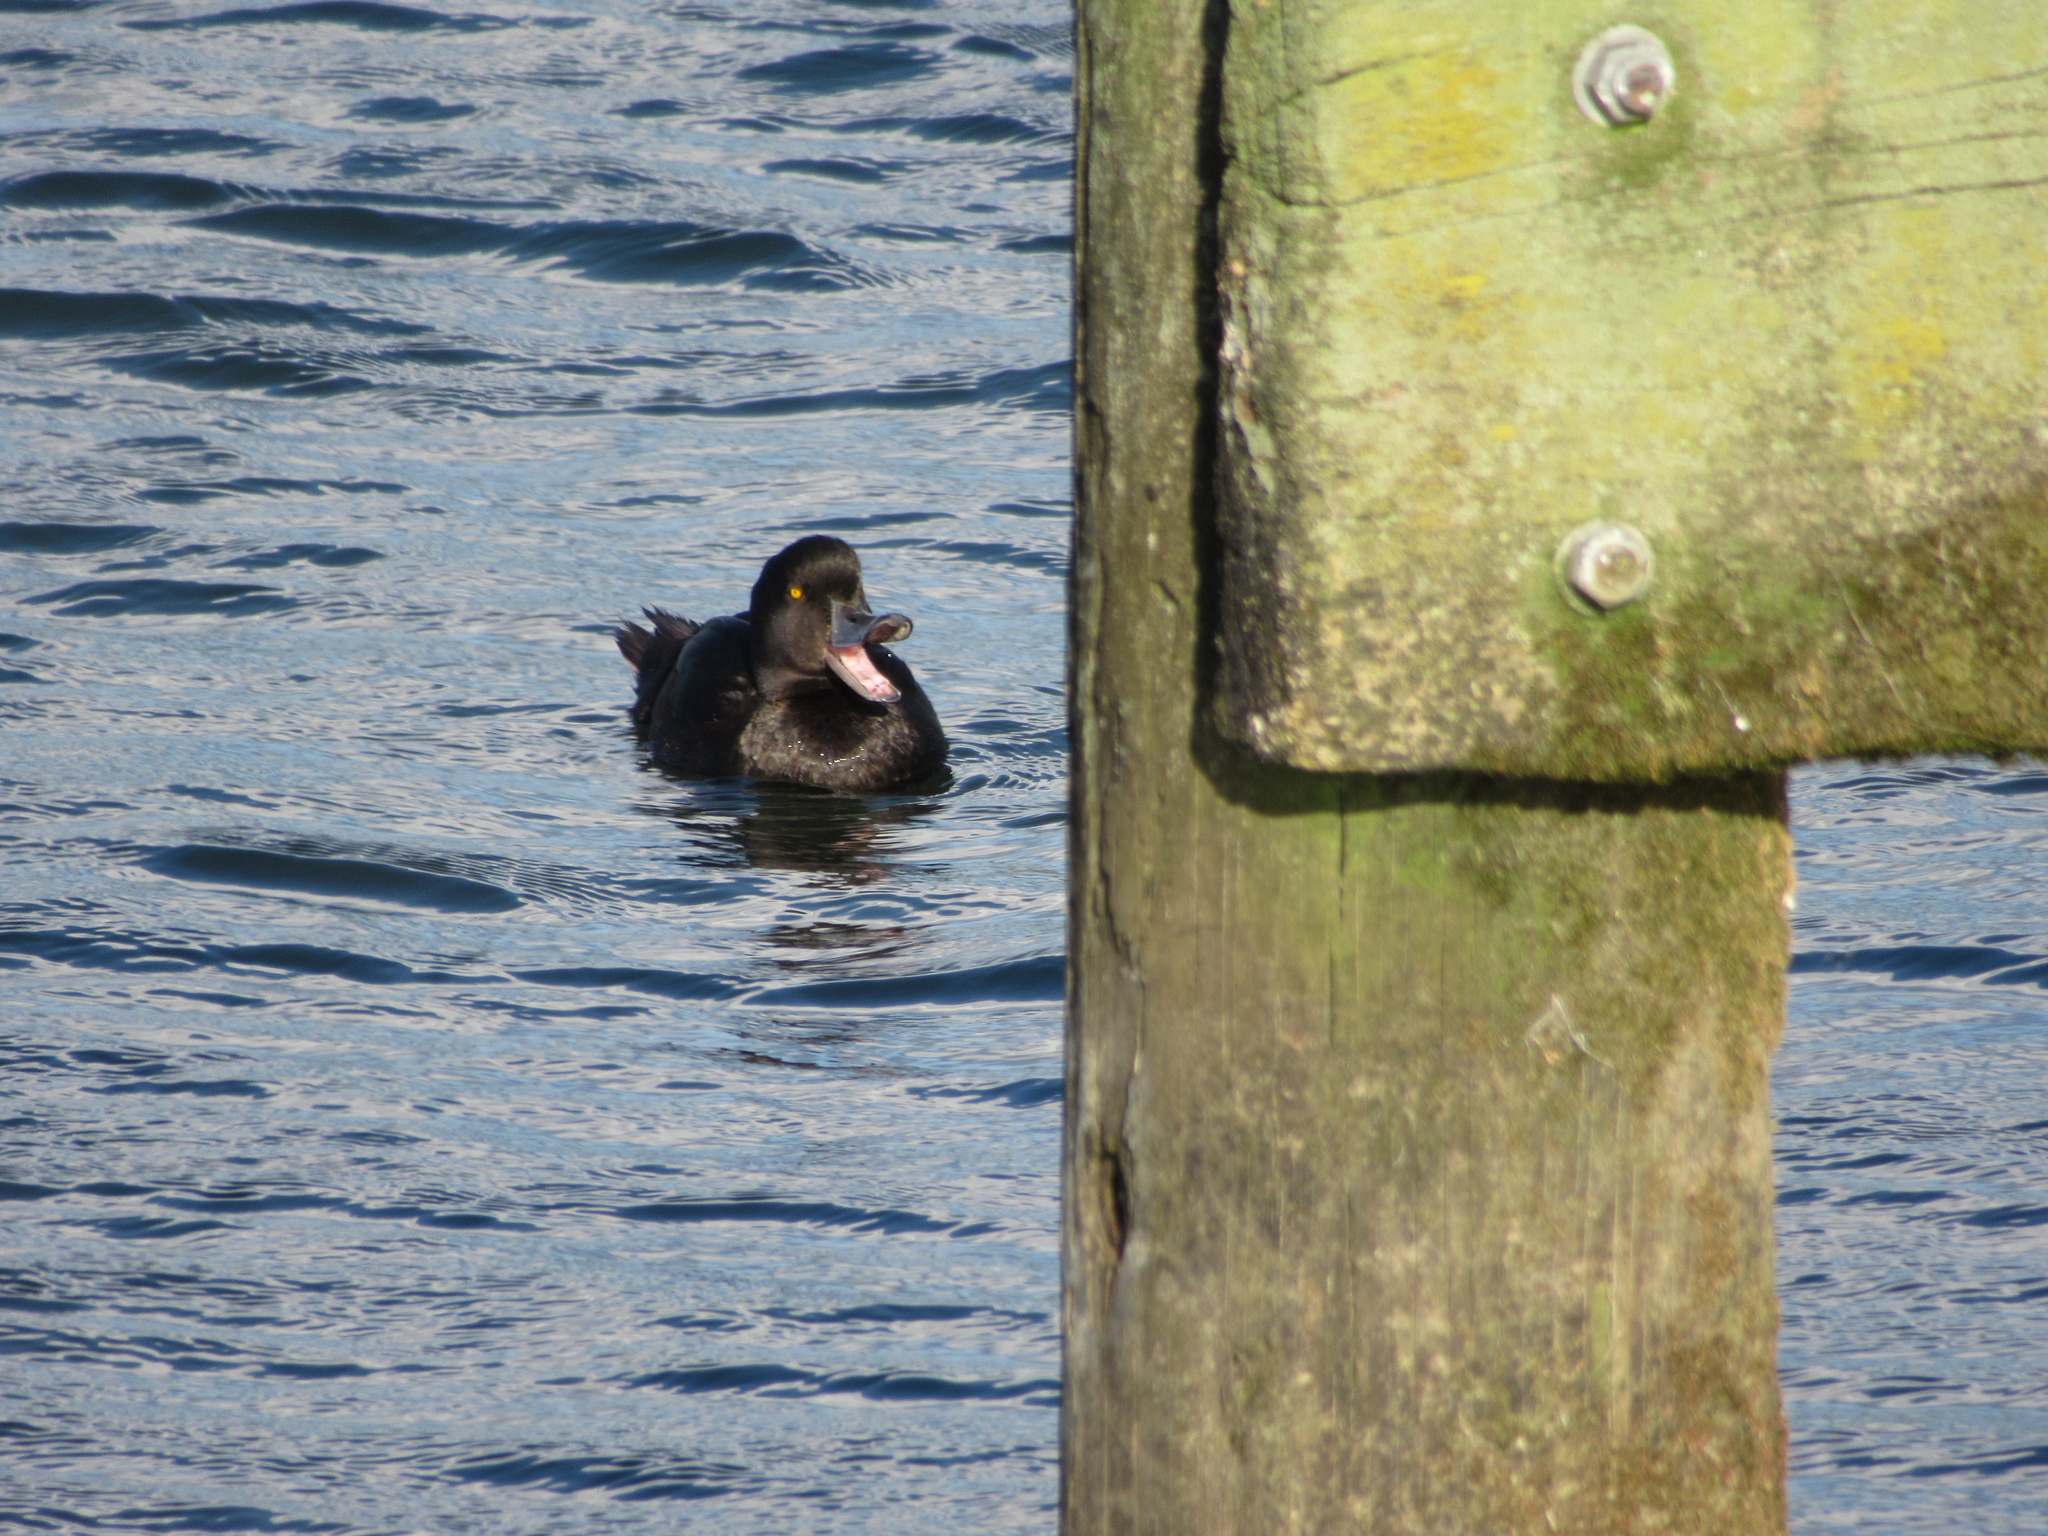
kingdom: Animalia
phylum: Chordata
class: Aves
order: Anseriformes
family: Anatidae
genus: Aythya
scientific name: Aythya novaeseelandiae
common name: New zealand scaup
